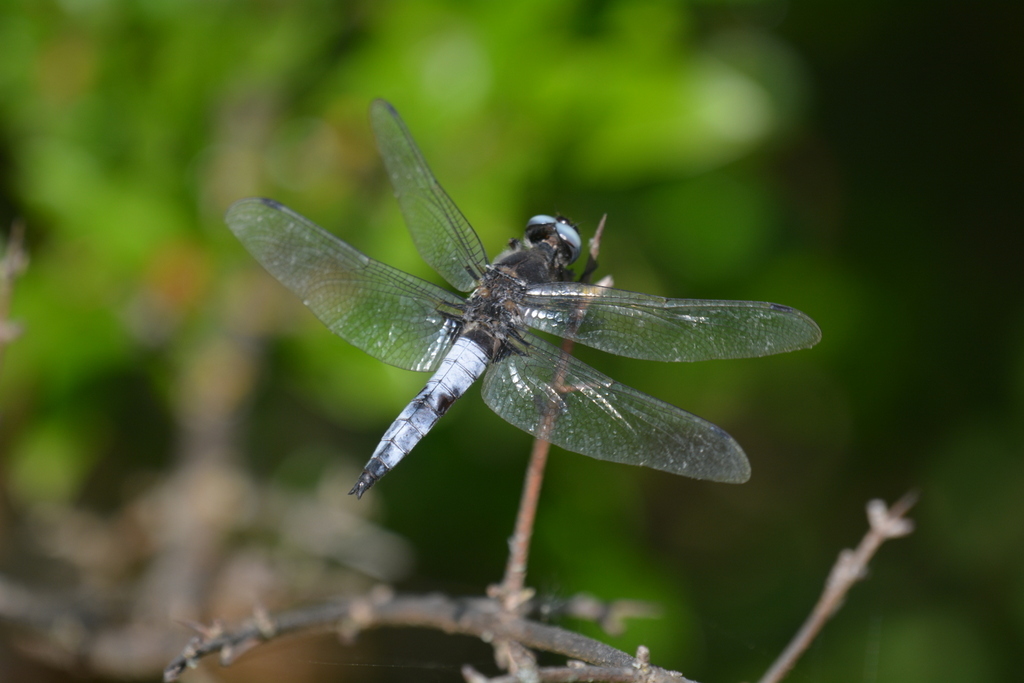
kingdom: Animalia
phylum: Arthropoda
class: Insecta
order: Odonata
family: Libellulidae
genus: Libellula
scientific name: Libellula fulva
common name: Blue chaser
